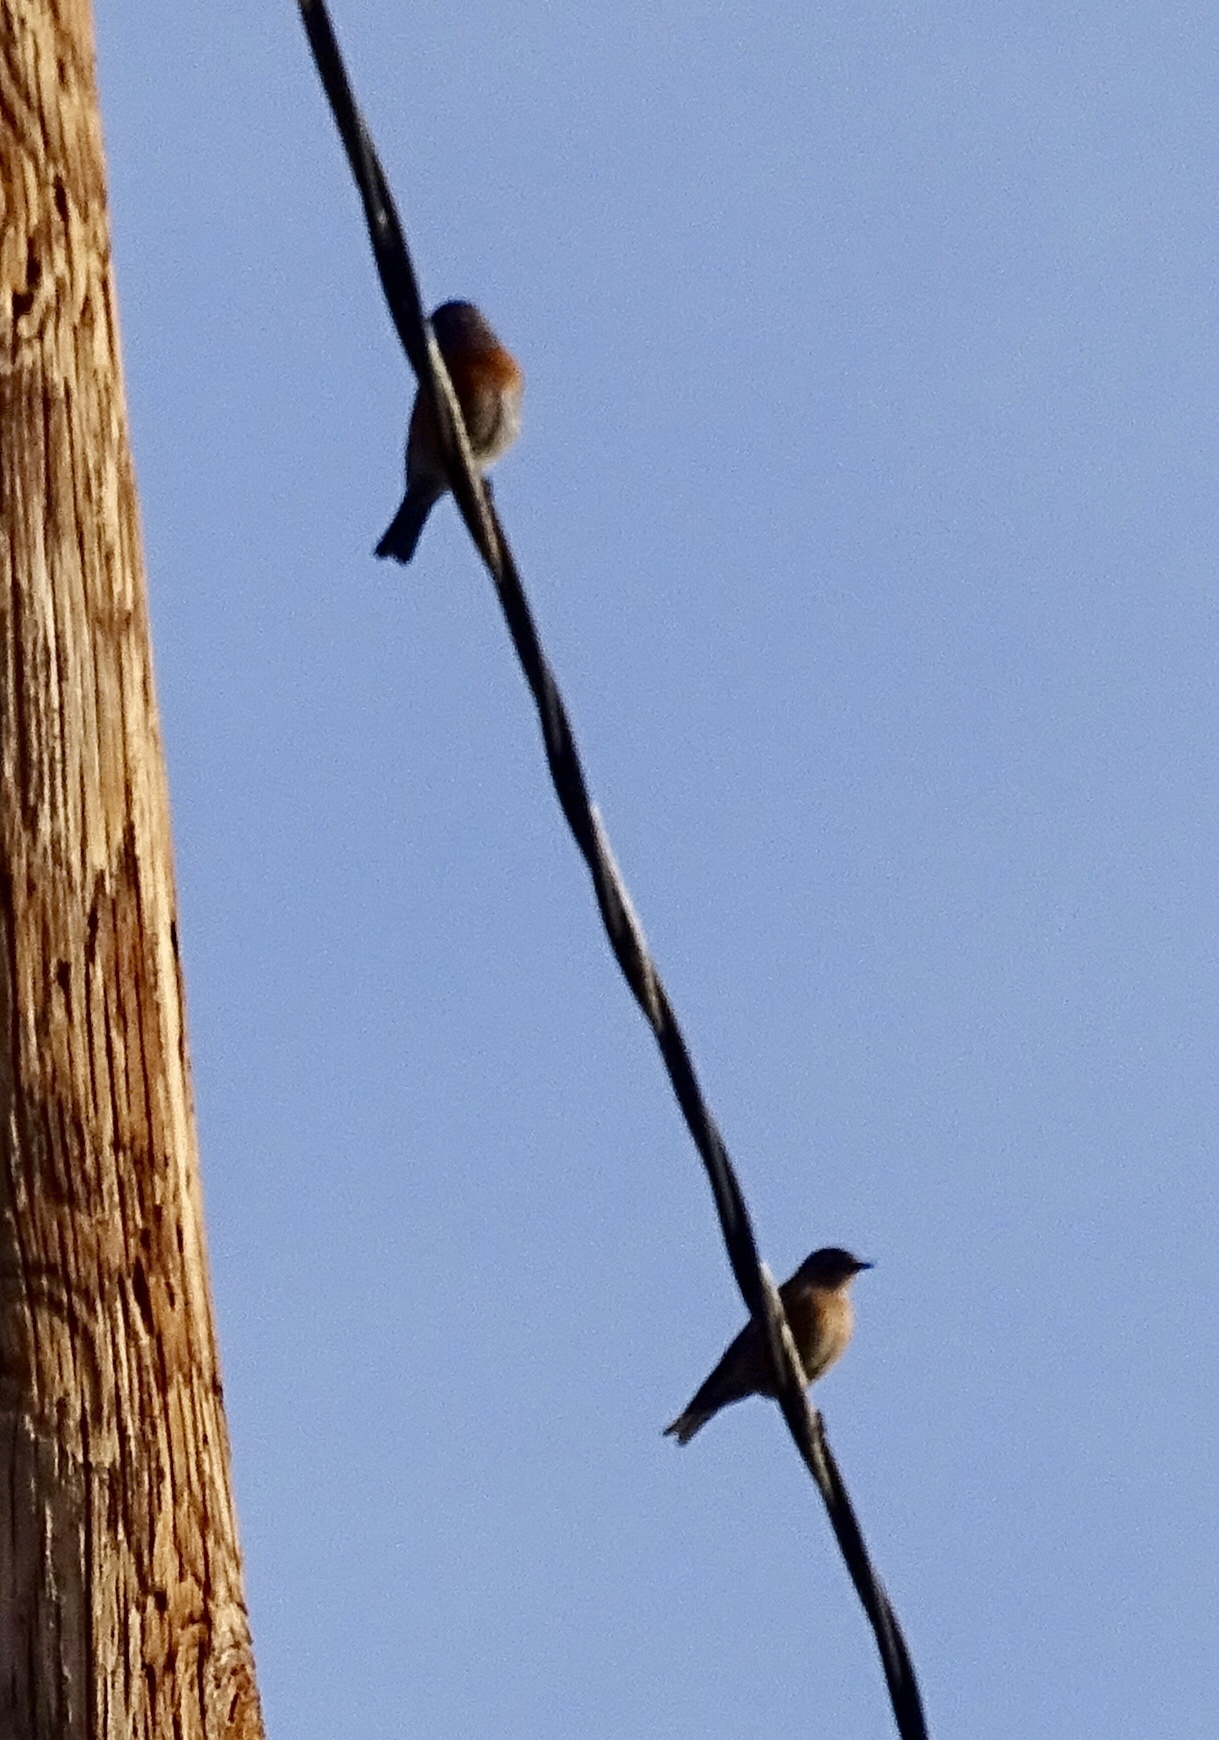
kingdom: Animalia
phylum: Chordata
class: Aves
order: Passeriformes
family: Turdidae
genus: Sialia
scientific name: Sialia mexicana
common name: Western bluebird
